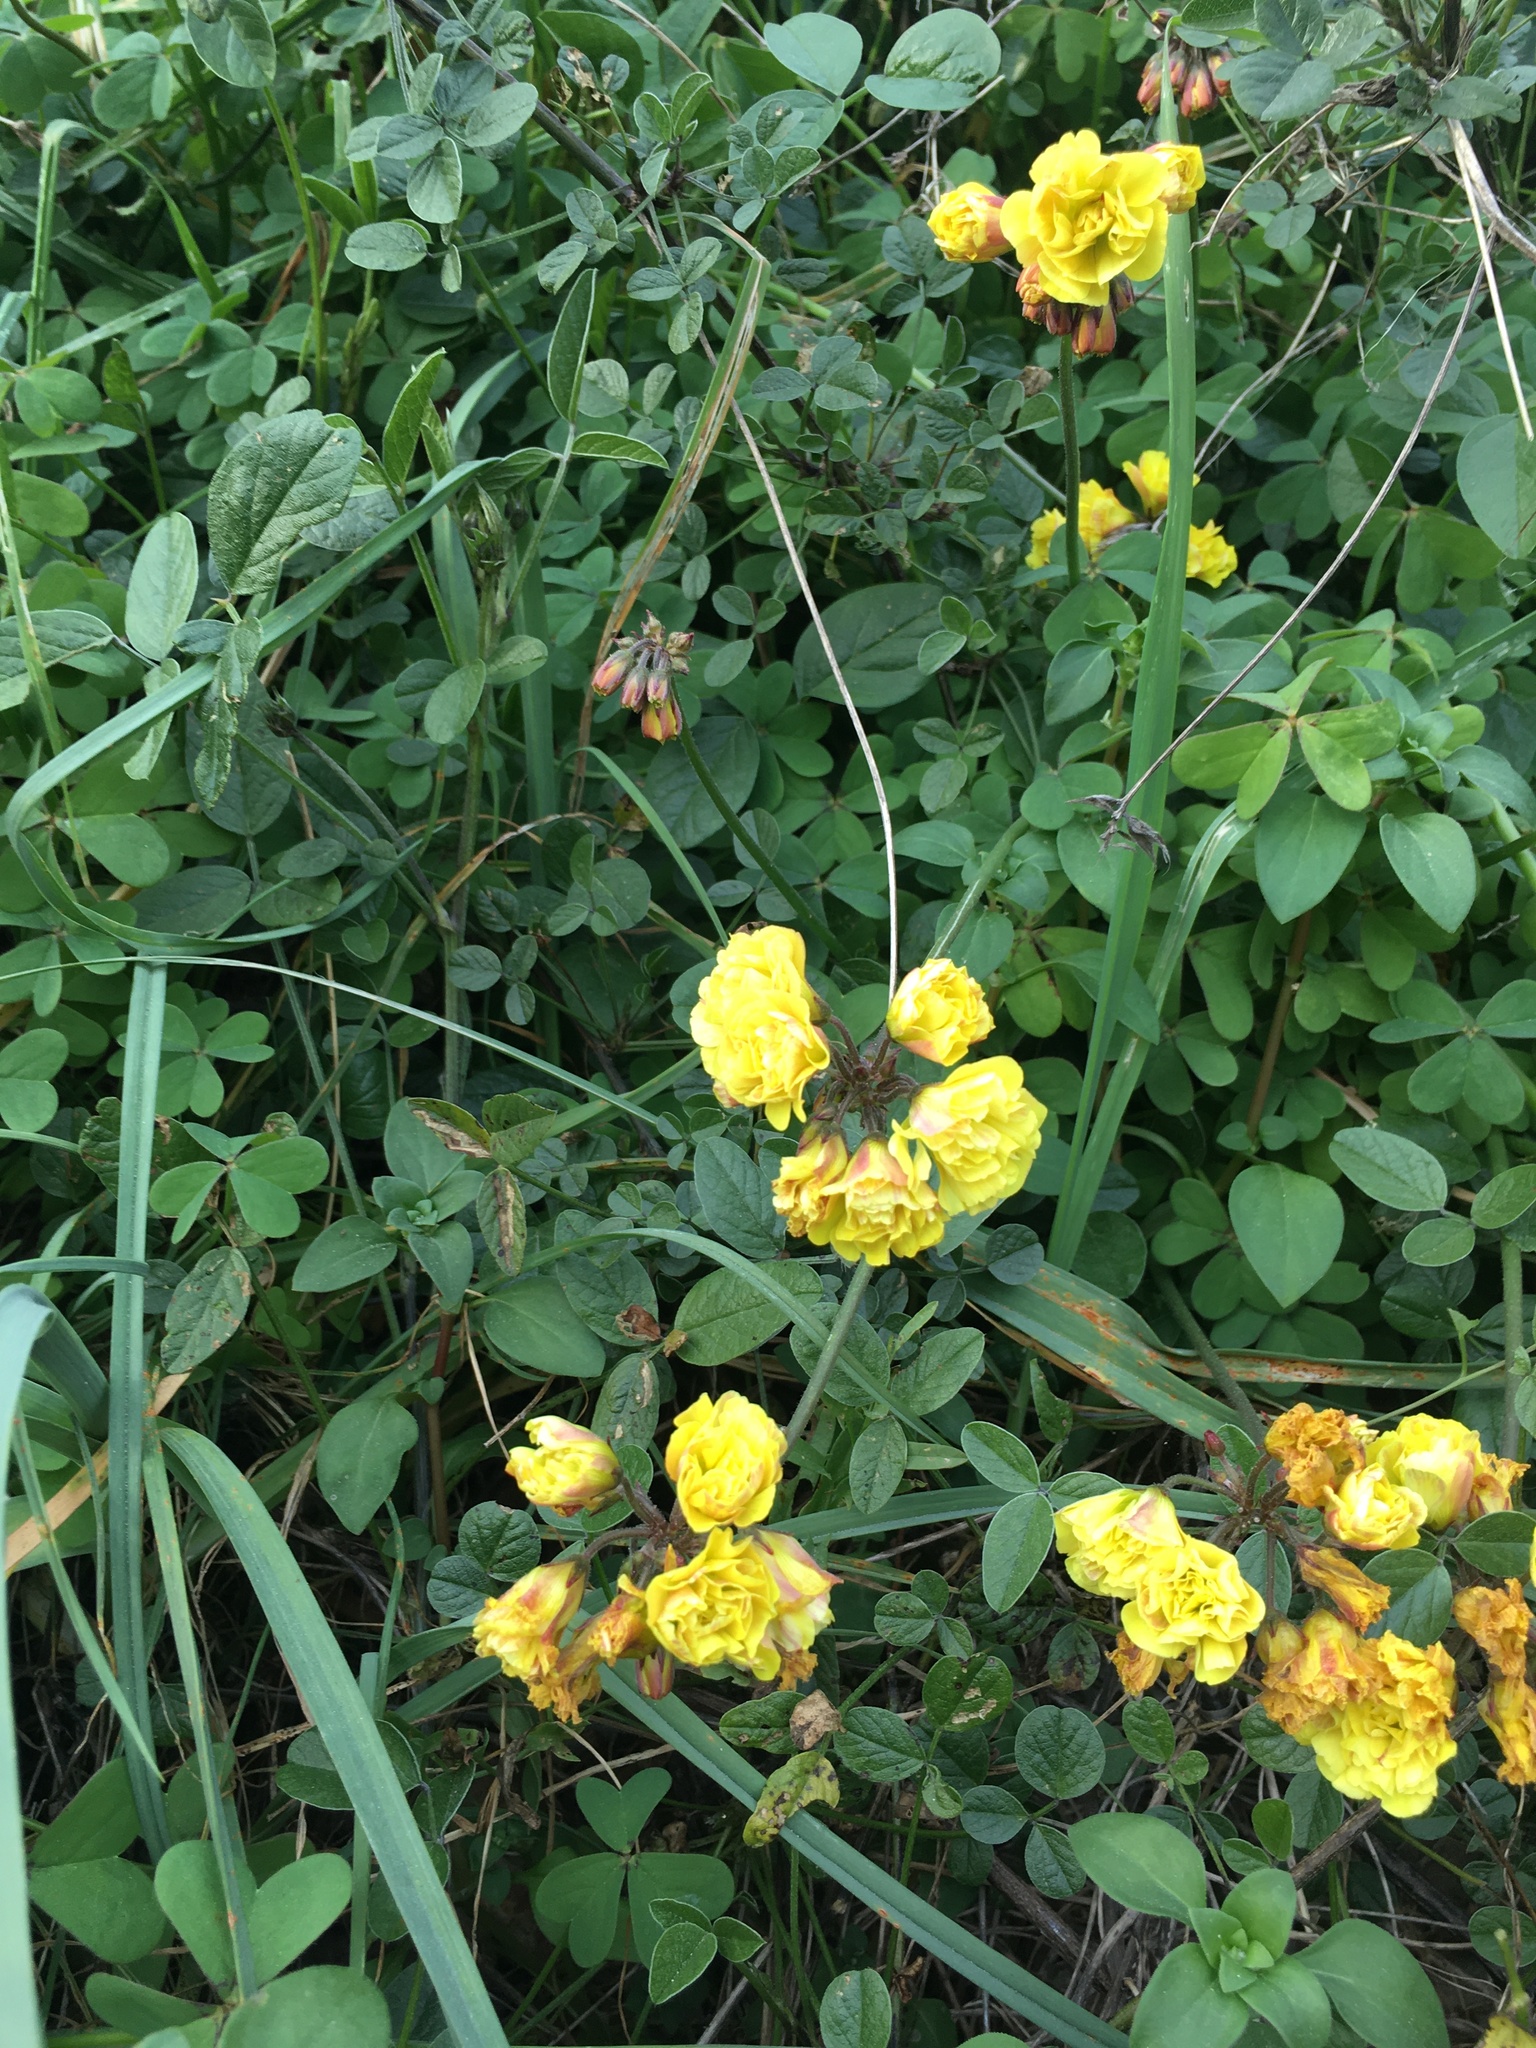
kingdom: Plantae
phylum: Tracheophyta
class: Magnoliopsida
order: Oxalidales
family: Oxalidaceae
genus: Oxalis
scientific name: Oxalis pes-caprae
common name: Bermuda-buttercup
